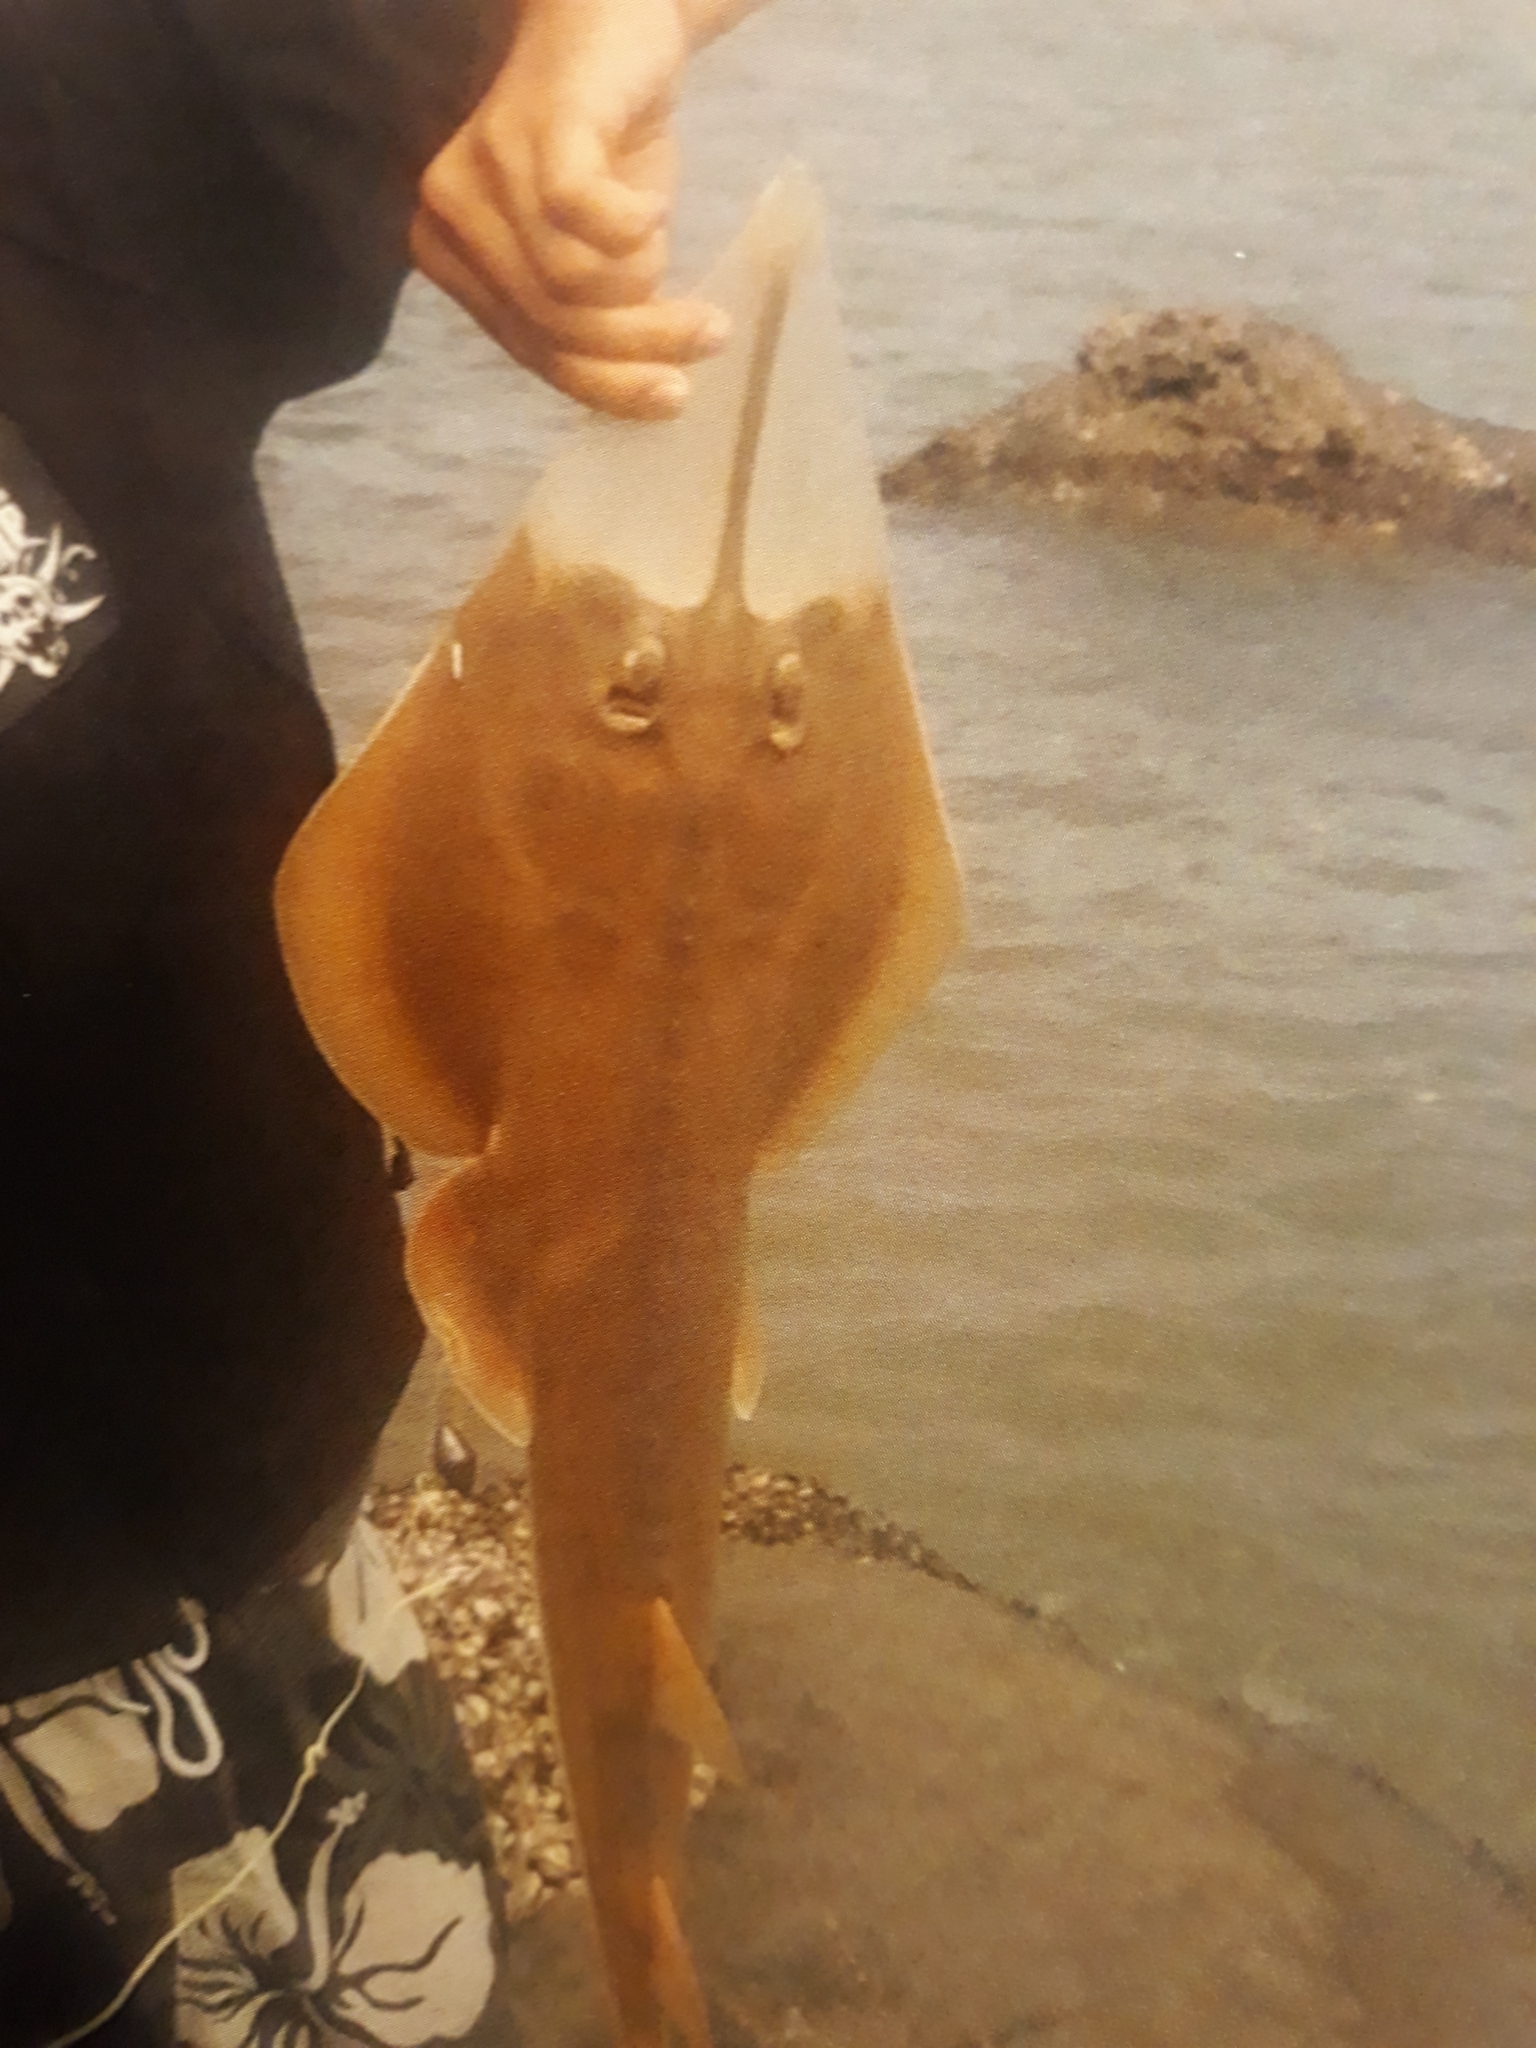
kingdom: Animalia
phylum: Chordata
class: Elasmobranchii
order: Rhinopristiformes
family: Glaucostegidae
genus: Glaucostegus
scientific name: Glaucostegus typus
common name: Giant shovelnose ray
